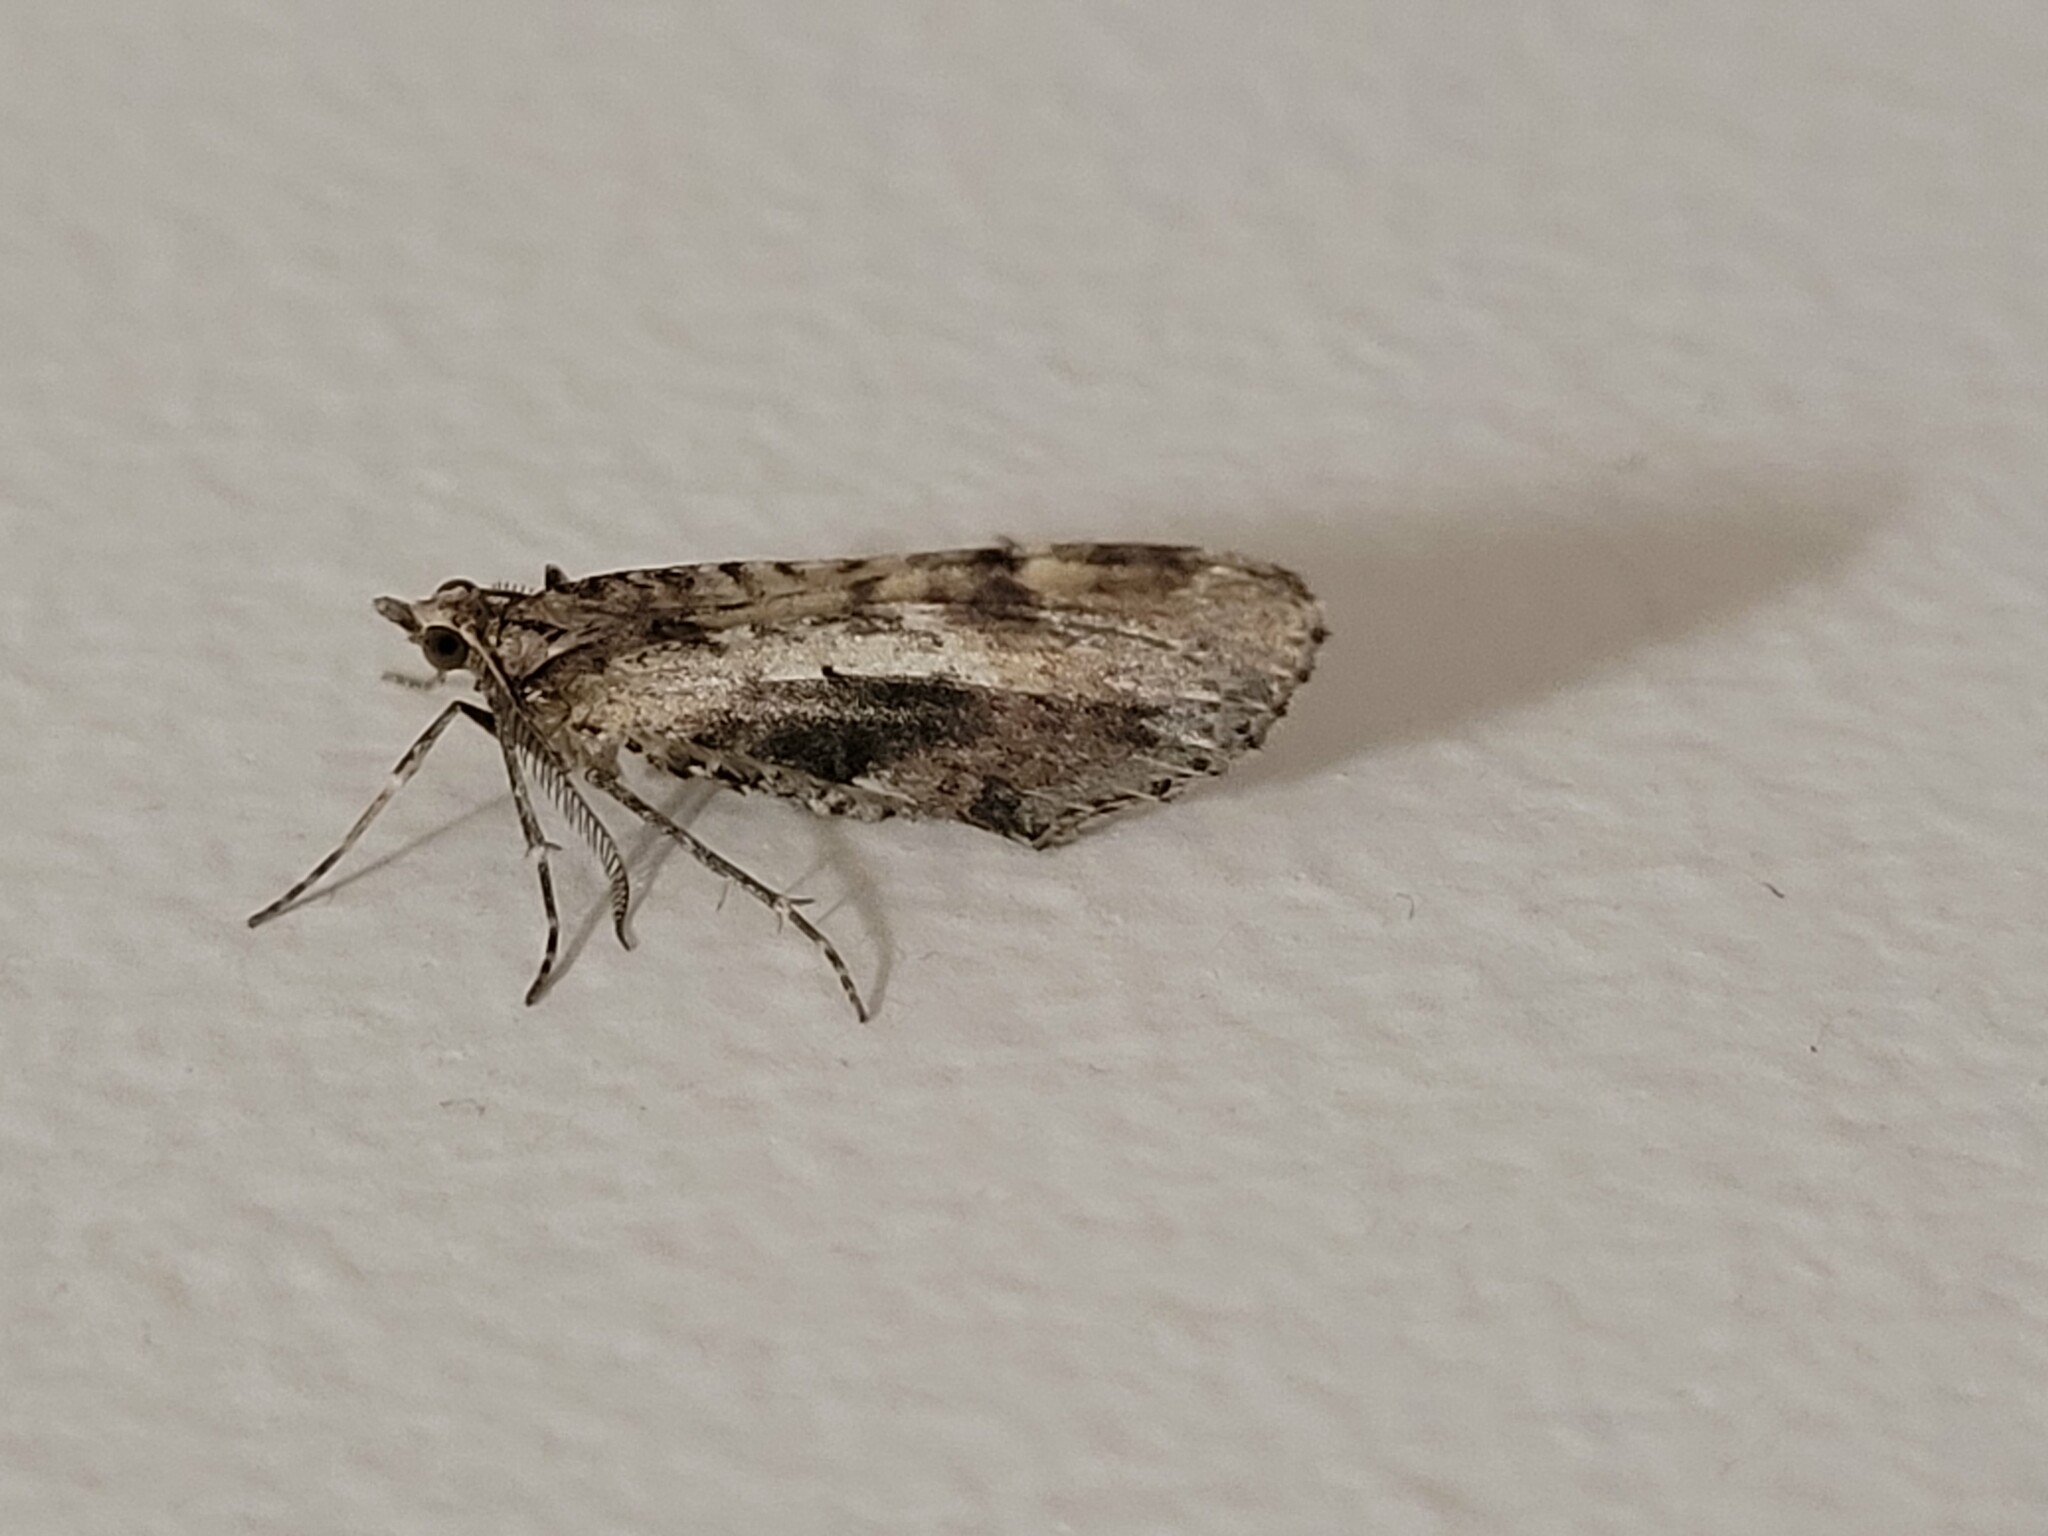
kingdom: Animalia
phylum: Arthropoda
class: Insecta
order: Lepidoptera
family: Geometridae
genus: Asaphodes
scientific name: Asaphodes aegrota
